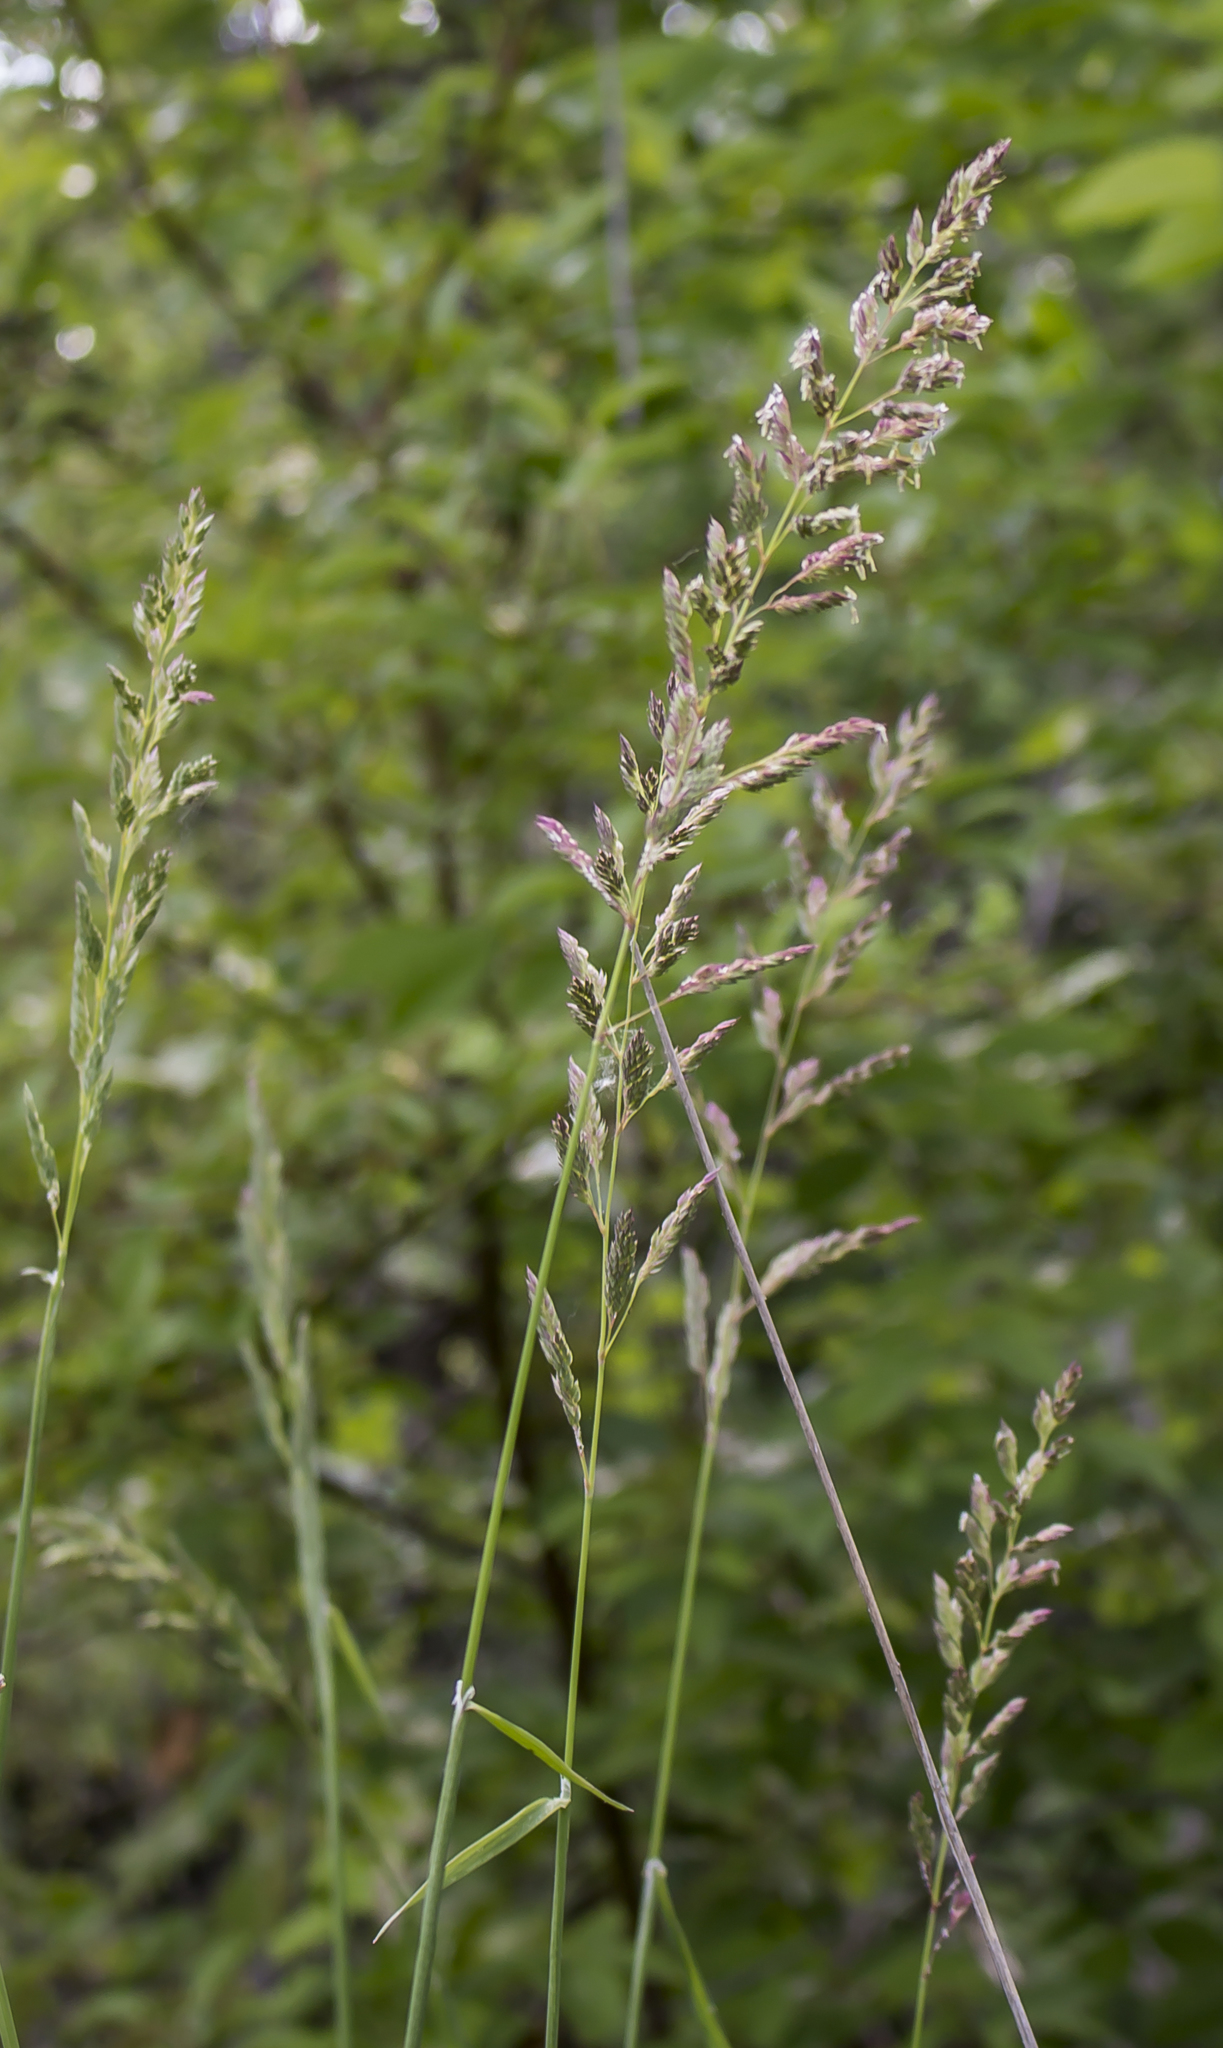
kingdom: Plantae
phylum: Tracheophyta
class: Liliopsida
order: Poales
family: Poaceae
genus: Phalaris
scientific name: Phalaris arundinacea
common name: Reed canary-grass
